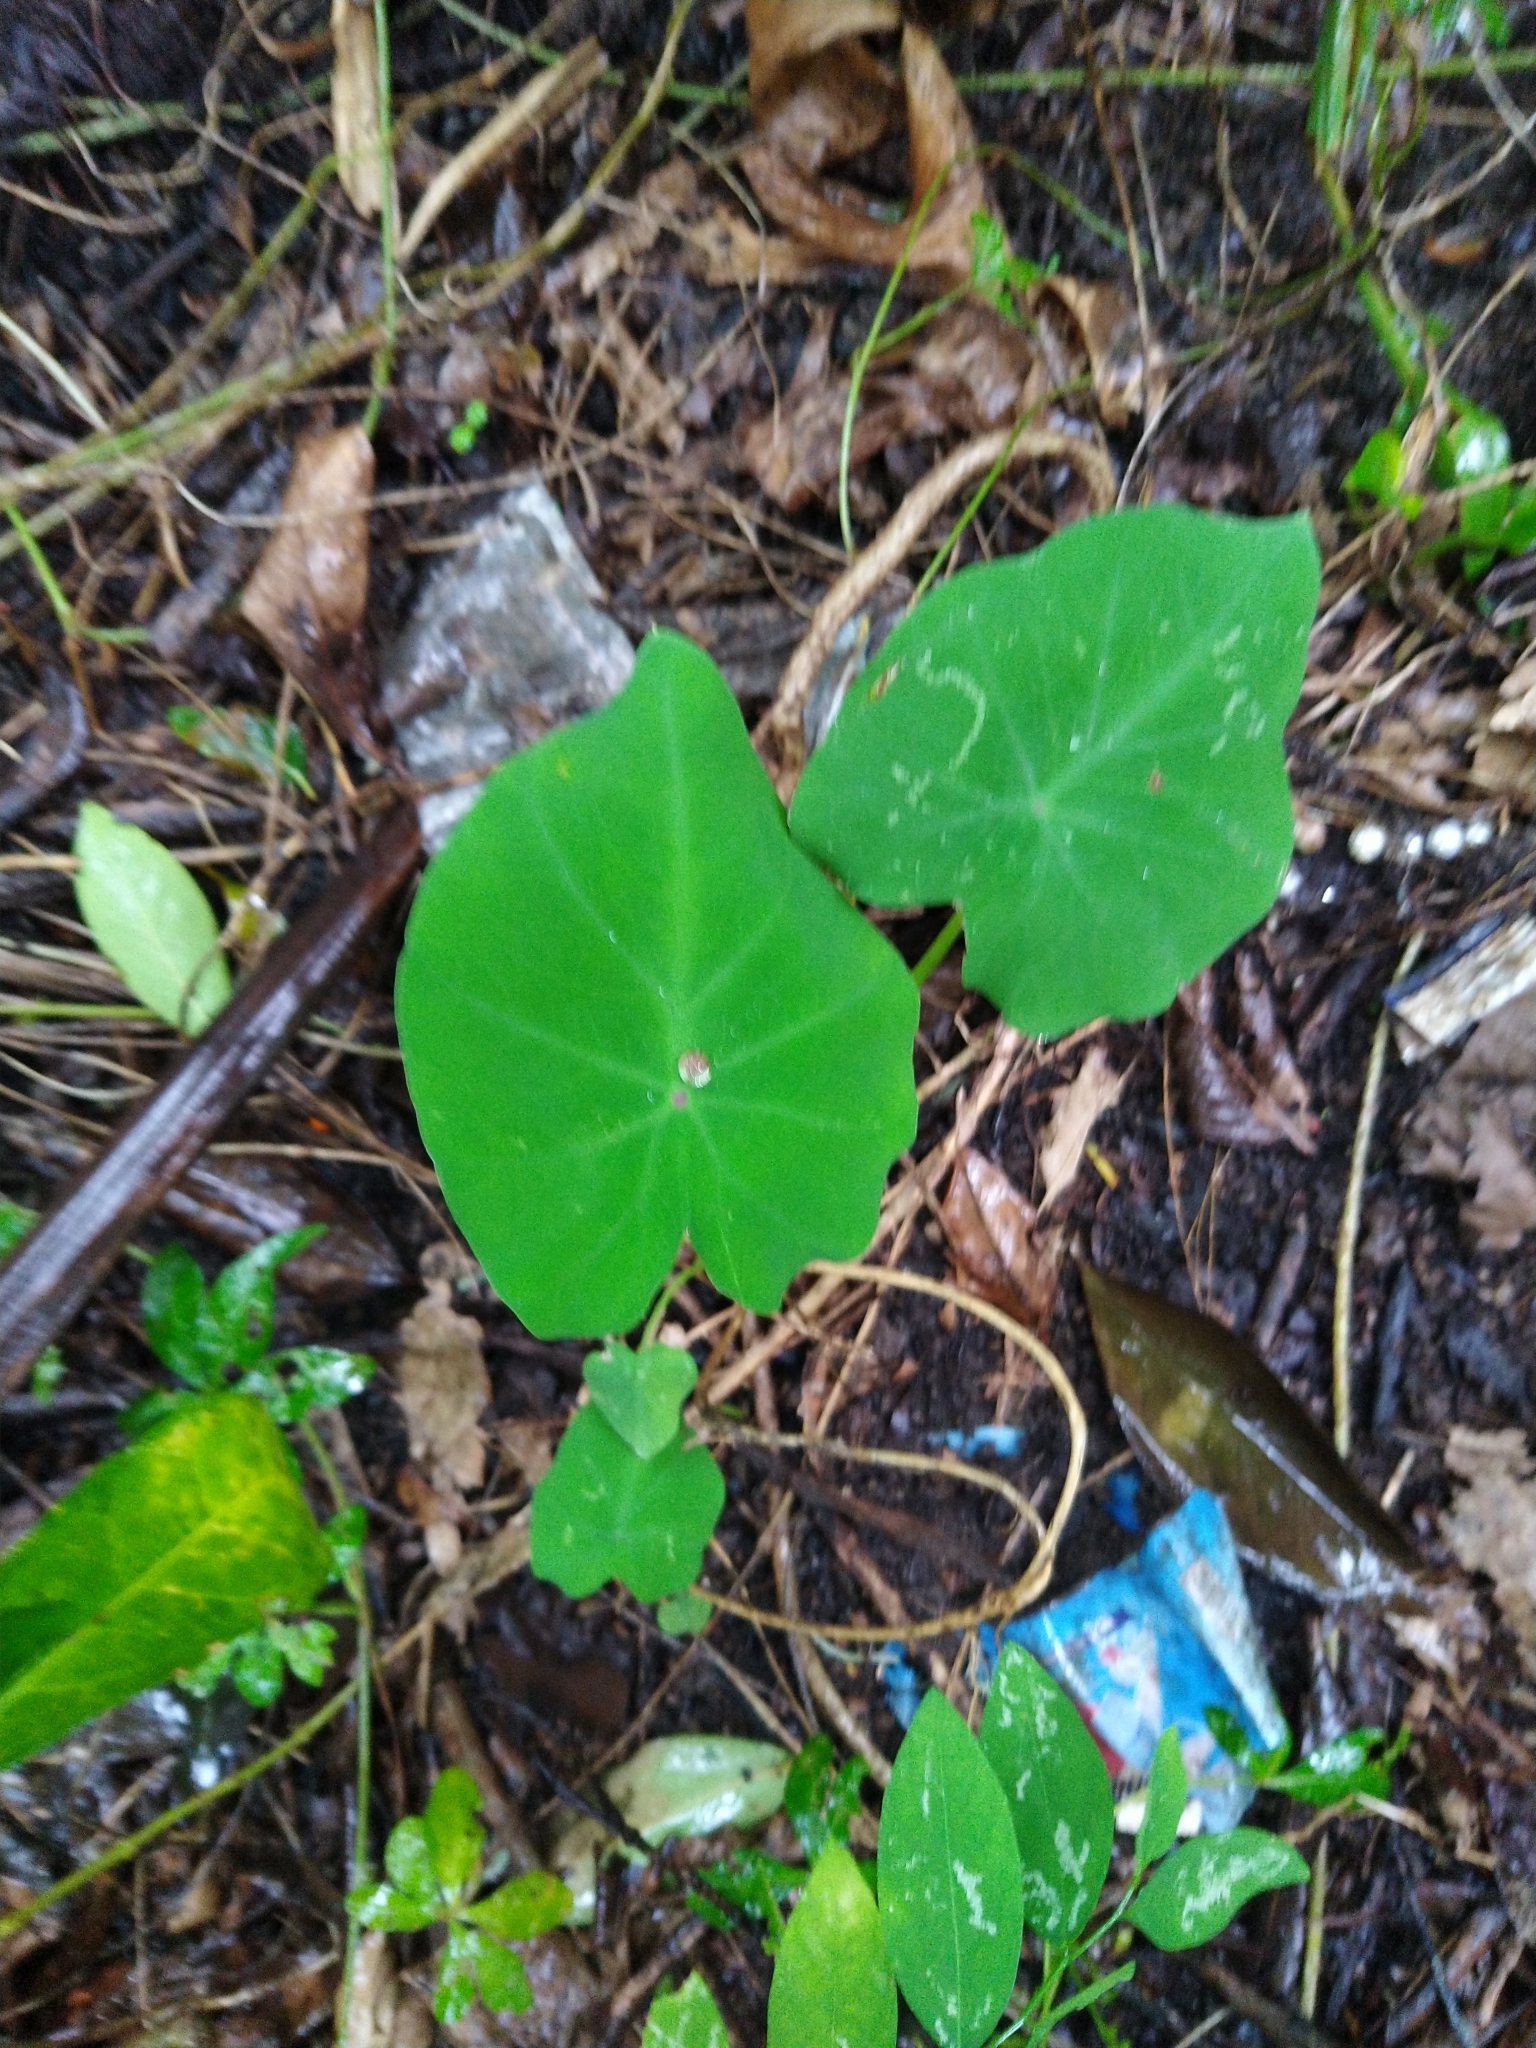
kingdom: Plantae
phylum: Tracheophyta
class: Liliopsida
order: Alismatales
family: Araceae
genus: Colocasia
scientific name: Colocasia esculenta
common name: Taro
